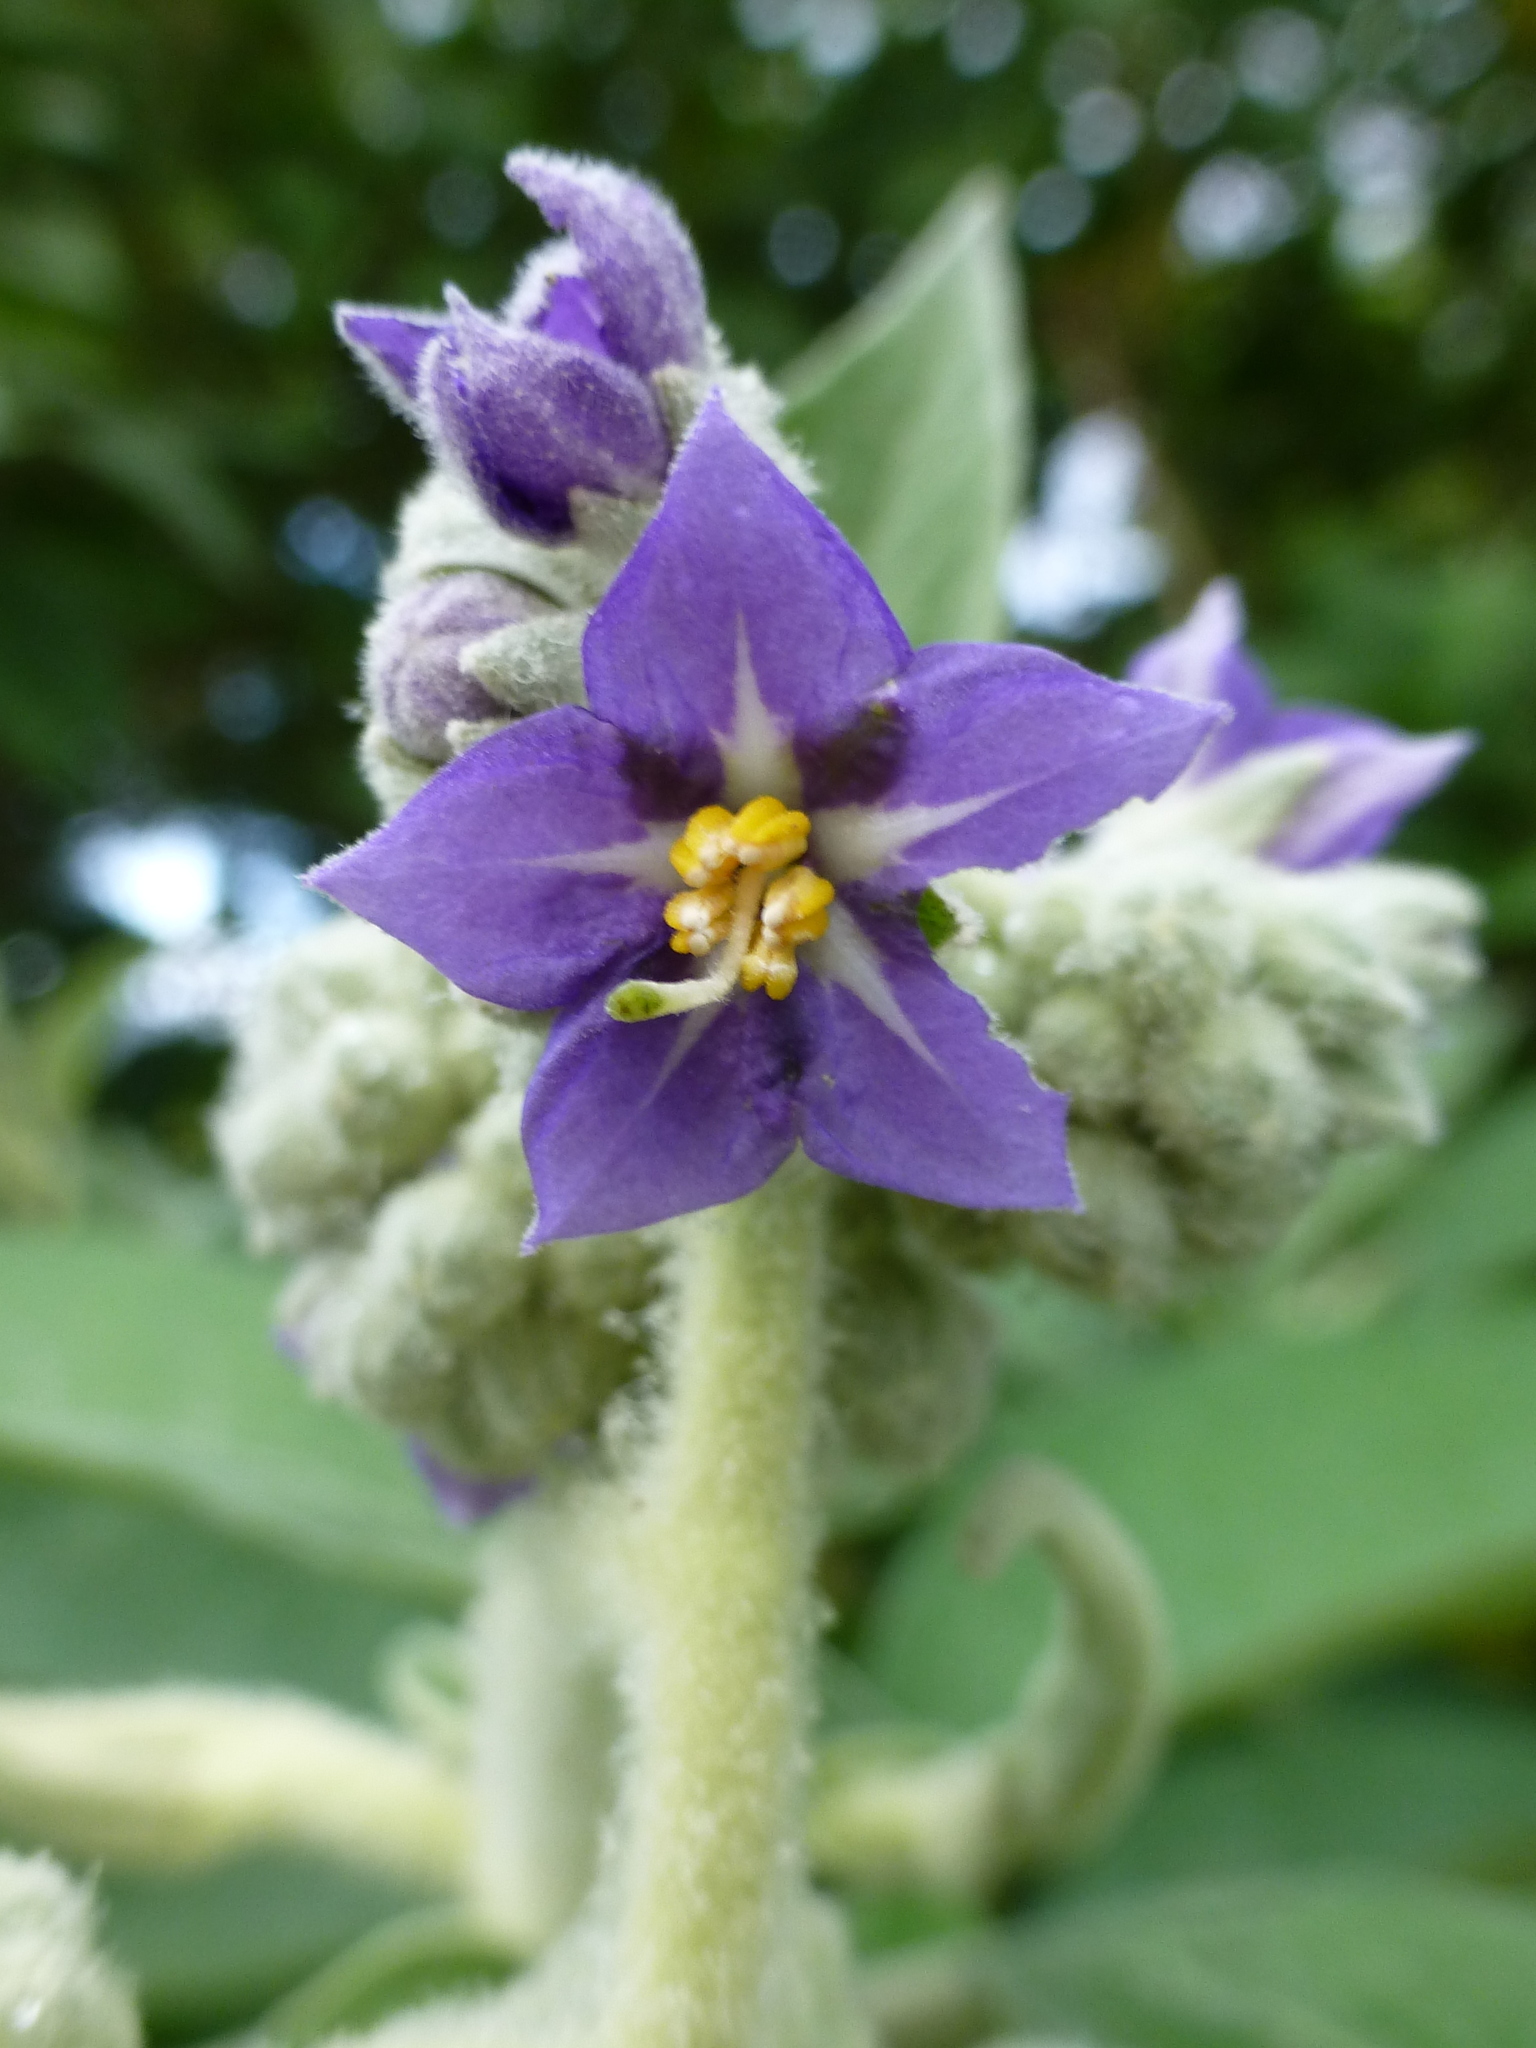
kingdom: Plantae
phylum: Tracheophyta
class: Magnoliopsida
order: Solanales
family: Solanaceae
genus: Solanum
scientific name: Solanum mauritianum
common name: Earleaf nightshade
